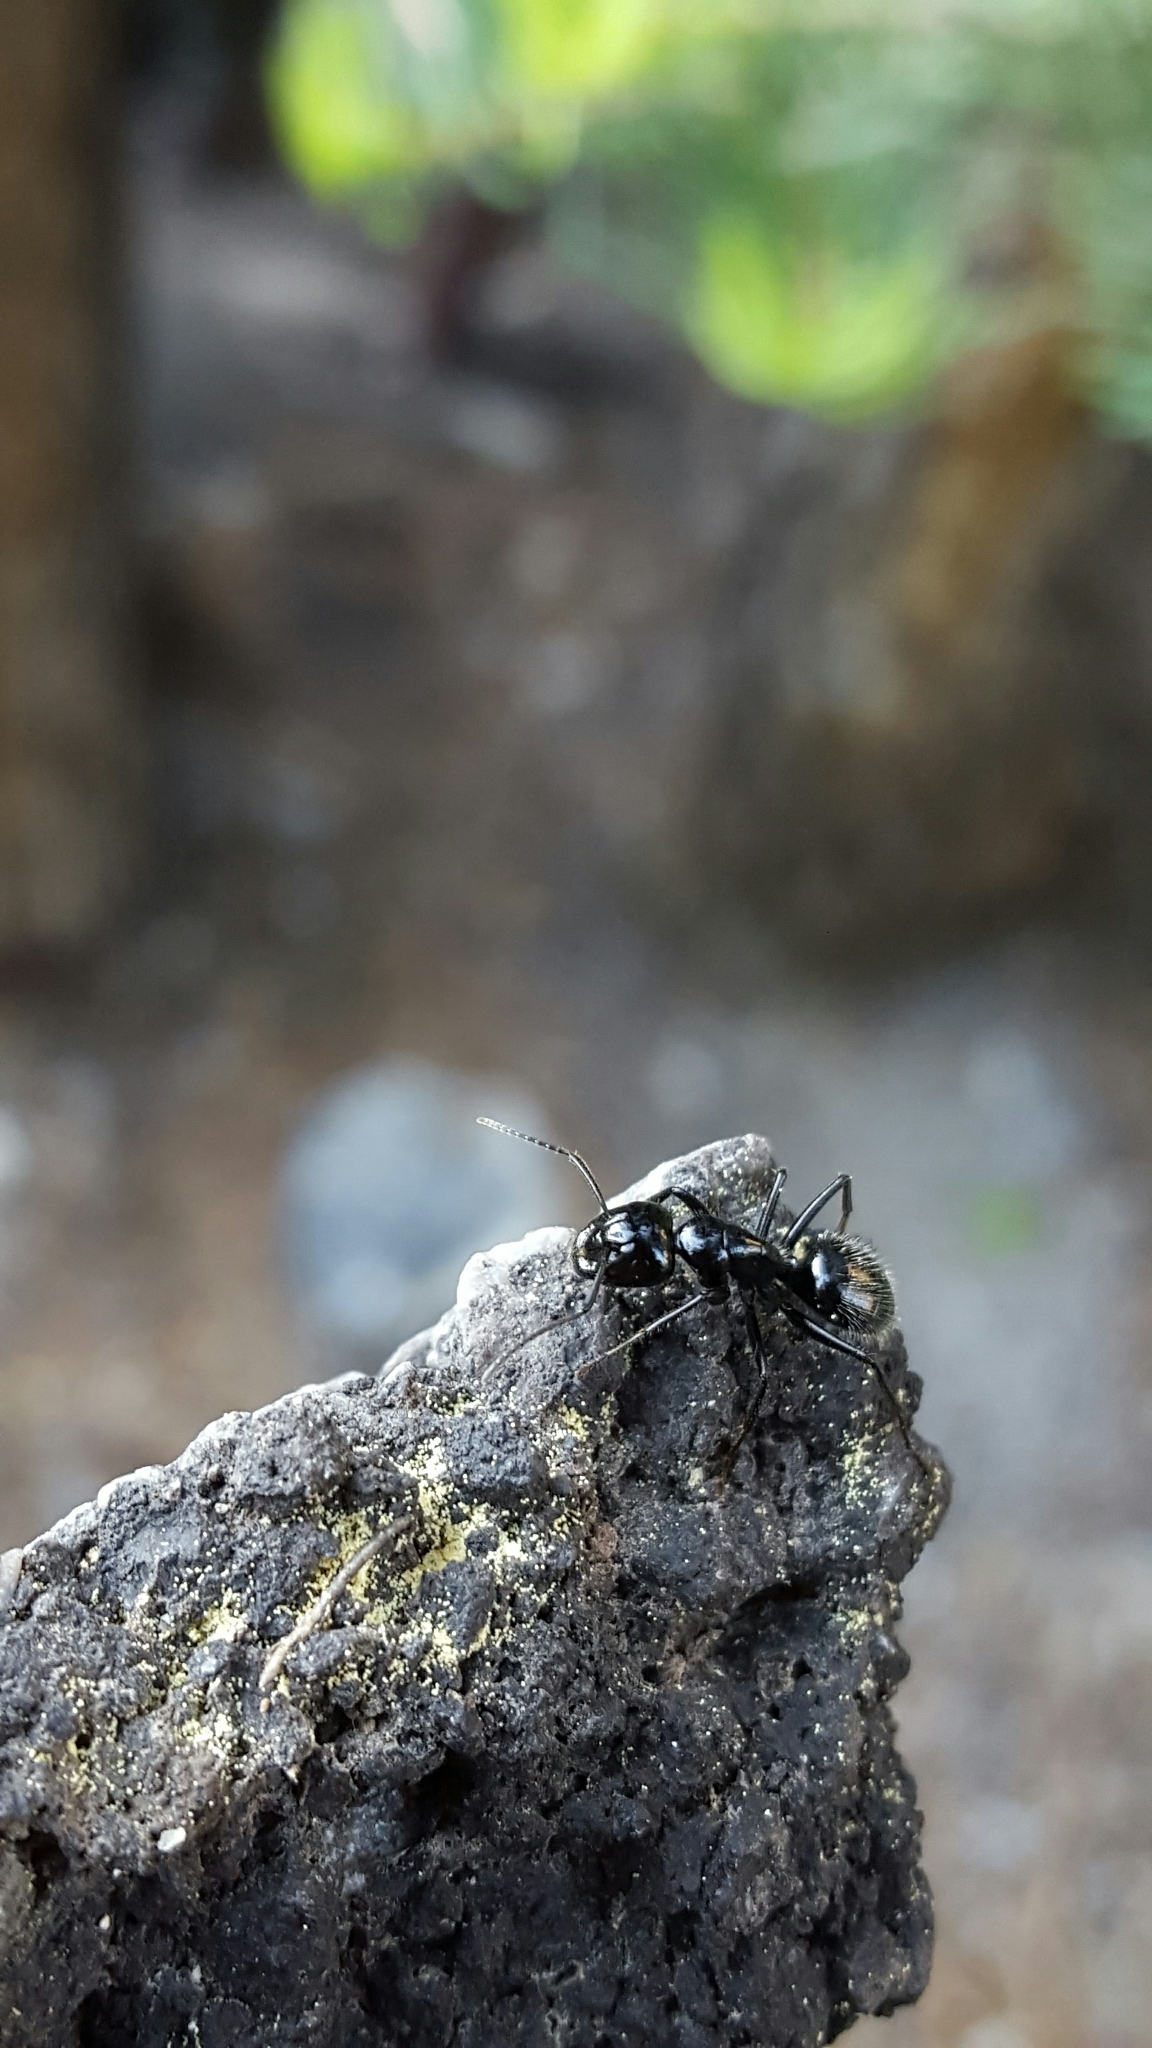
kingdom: Animalia
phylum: Arthropoda
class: Insecta
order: Hymenoptera
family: Formicidae
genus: Camponotus
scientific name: Camponotus
